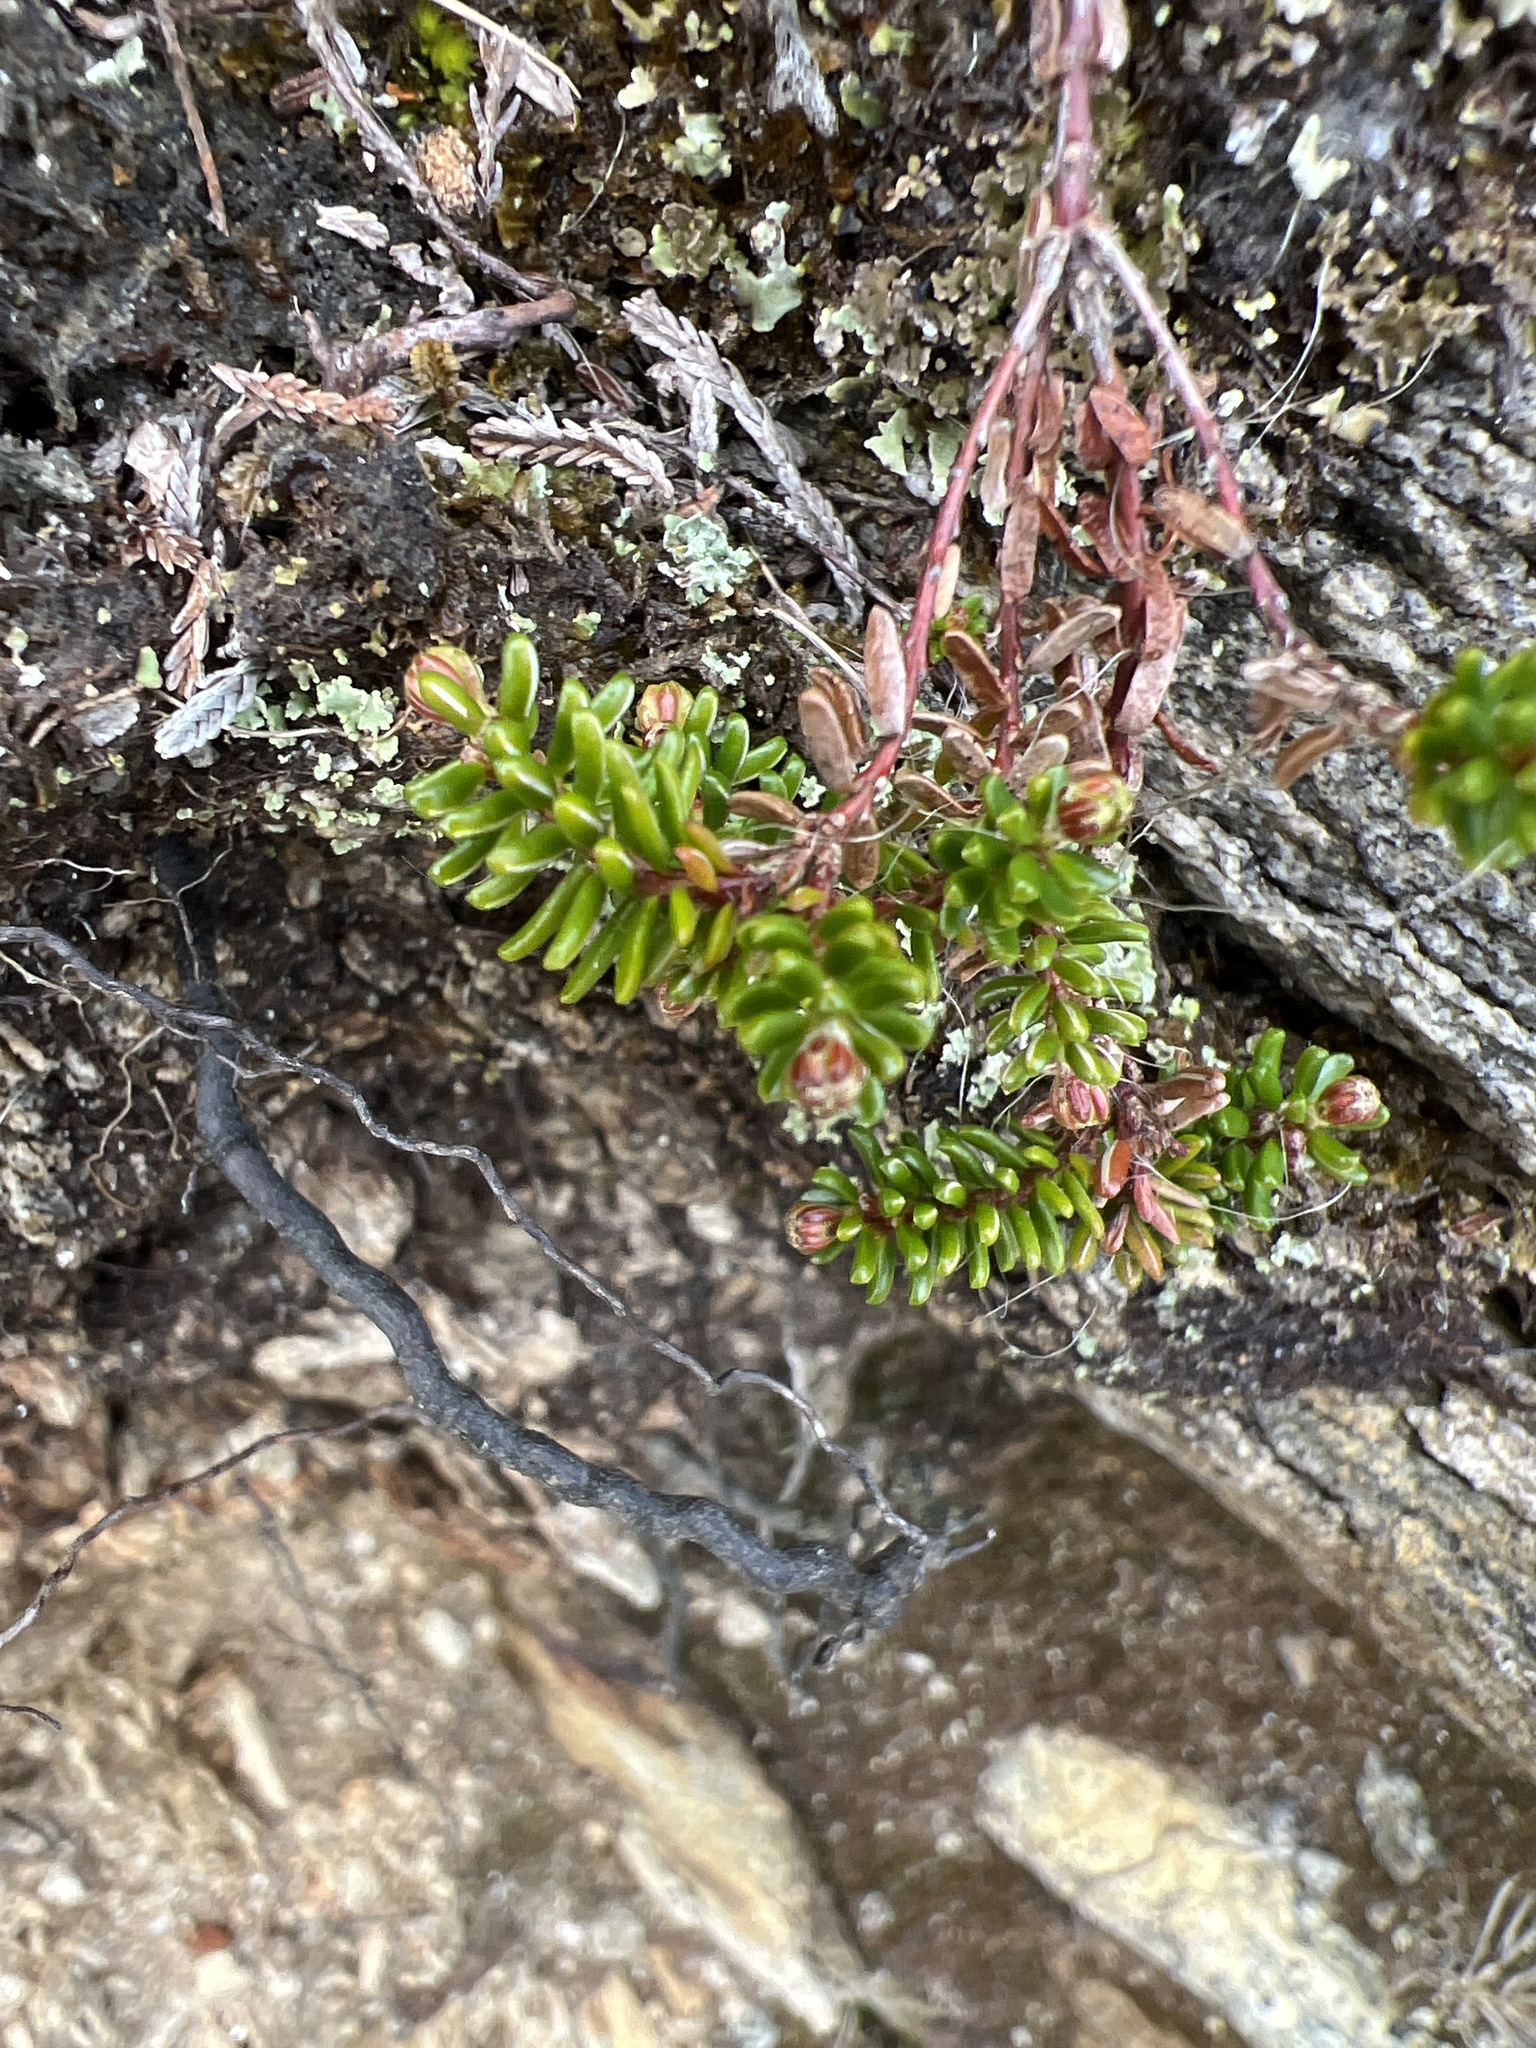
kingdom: Plantae
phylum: Tracheophyta
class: Magnoliopsida
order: Ericales
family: Ericaceae
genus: Empetrum
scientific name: Empetrum nigrum
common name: Black crowberry
